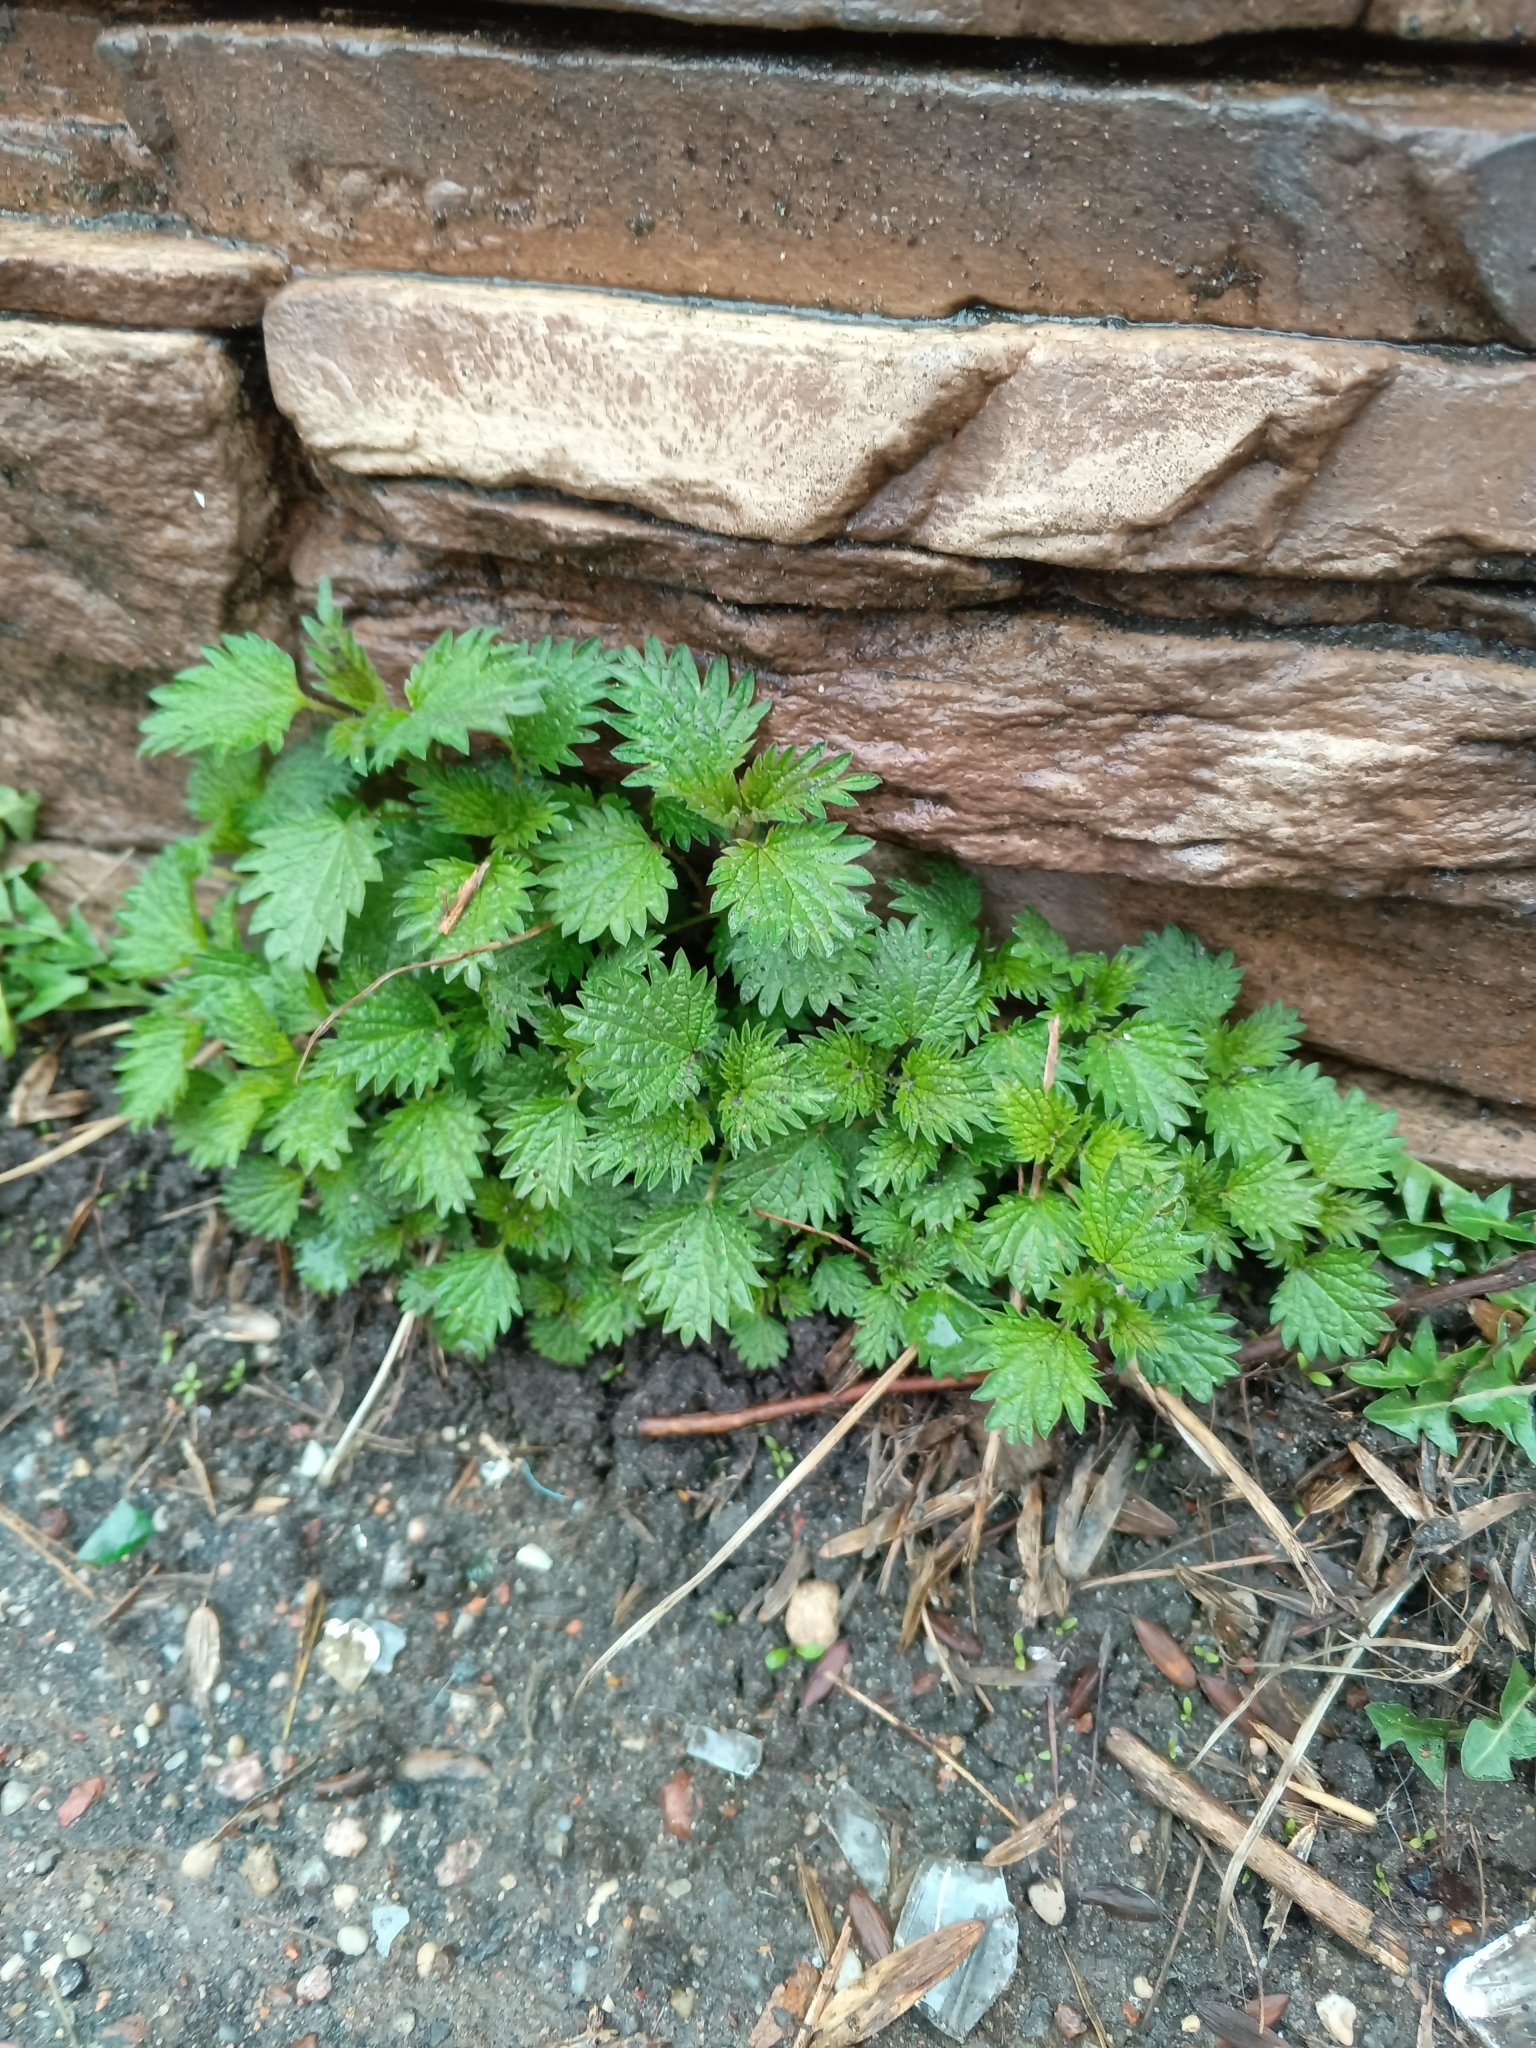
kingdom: Plantae
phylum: Tracheophyta
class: Magnoliopsida
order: Rosales
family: Urticaceae
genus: Urtica
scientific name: Urtica dioica
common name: Common nettle
